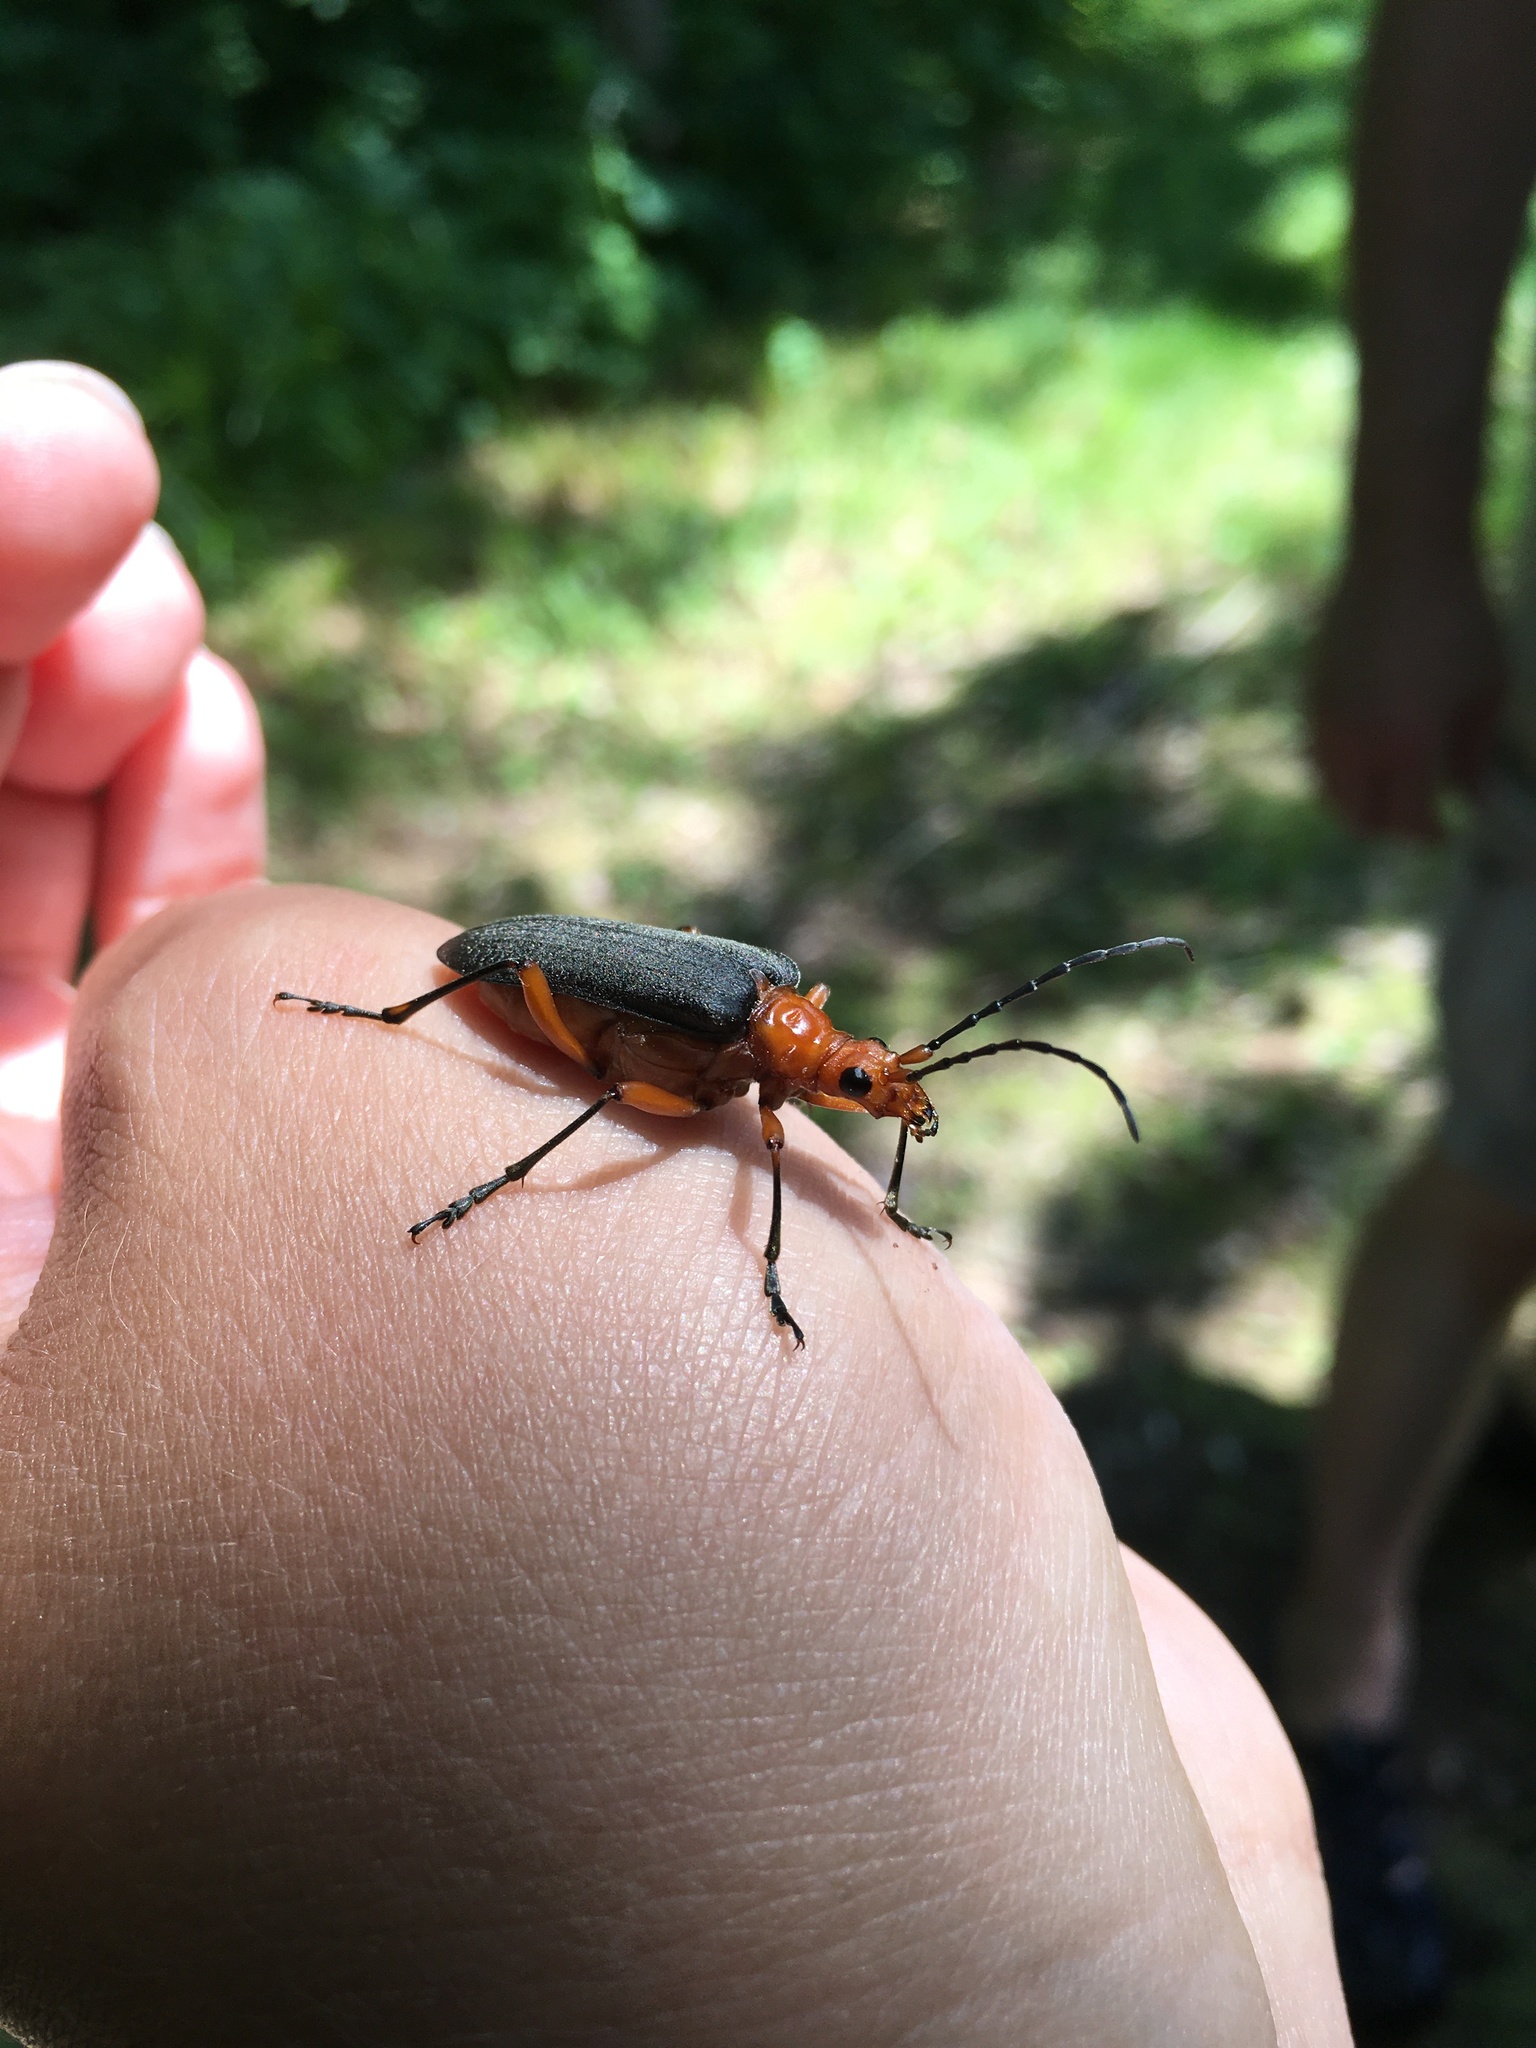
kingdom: Animalia
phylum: Arthropoda
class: Insecta
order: Coleoptera
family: Cerambycidae
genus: Stenocorus
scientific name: Stenocorus schaumii
